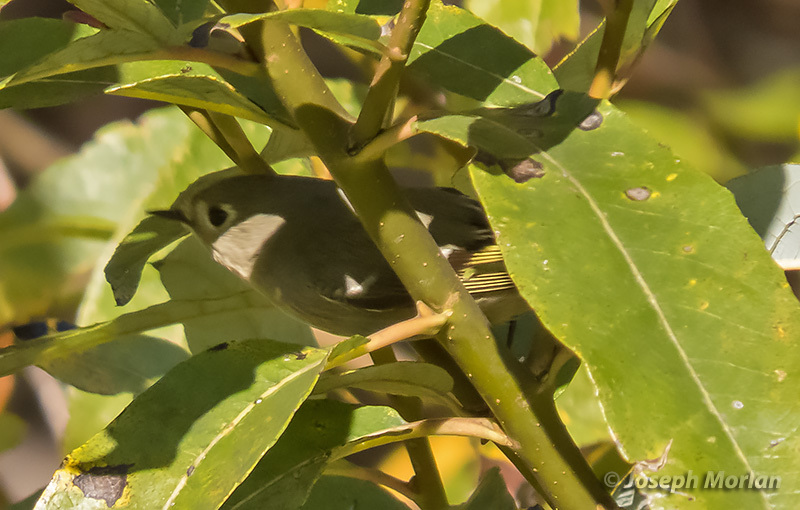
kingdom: Animalia
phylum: Chordata
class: Aves
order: Passeriformes
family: Regulidae
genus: Regulus
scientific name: Regulus calendula
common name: Ruby-crowned kinglet
